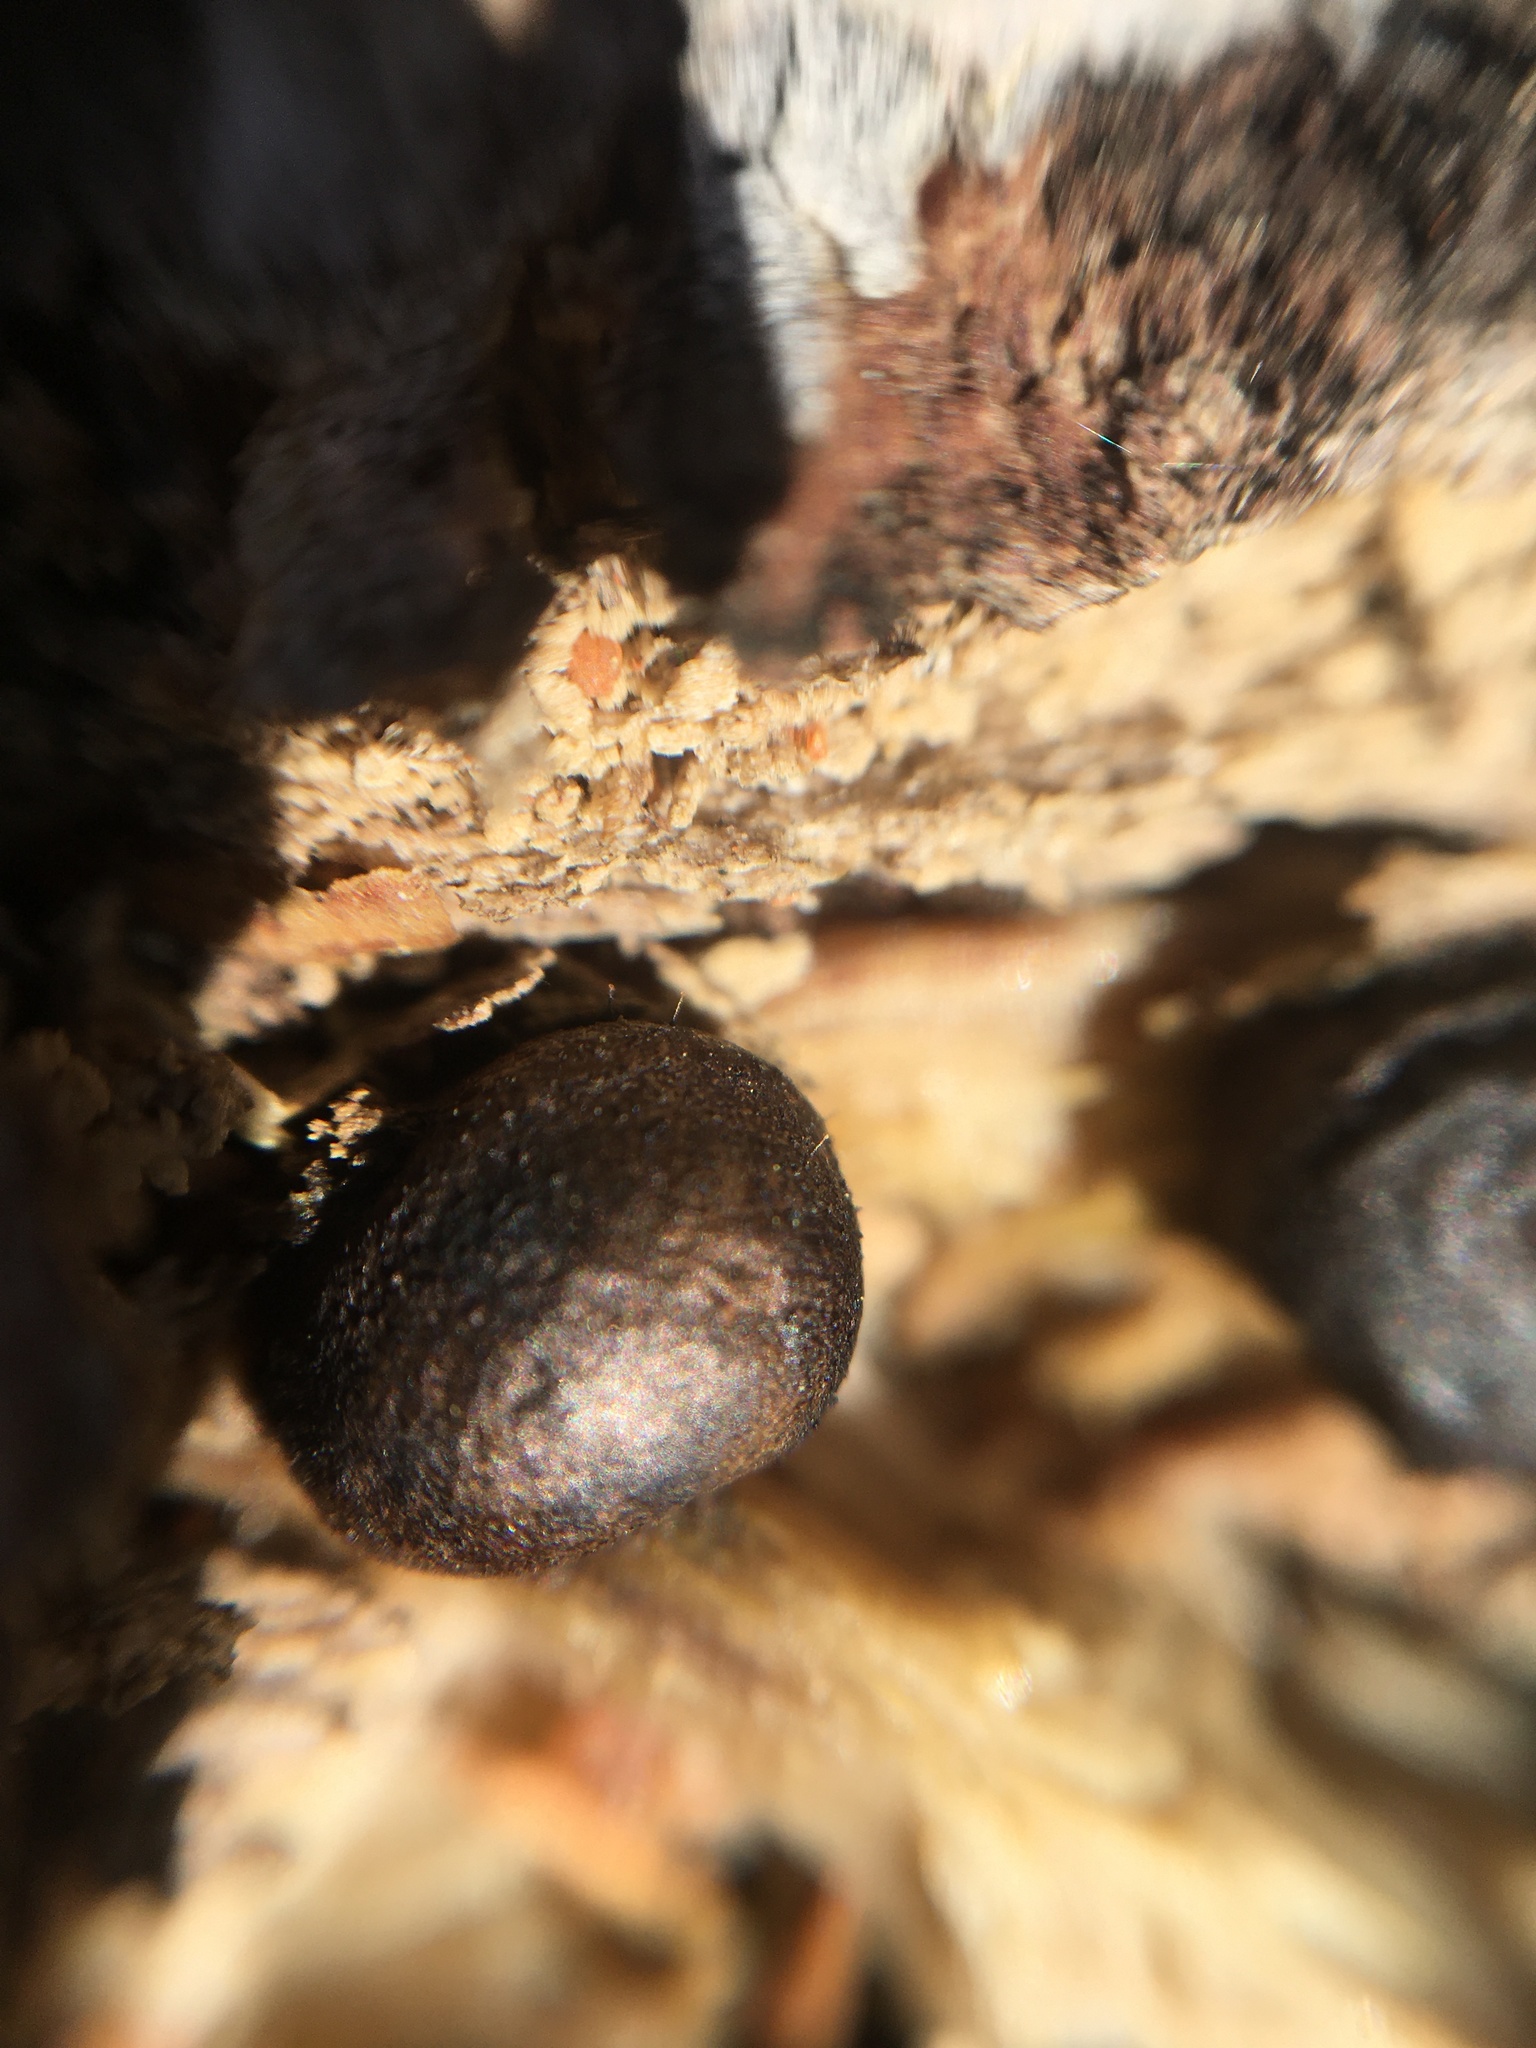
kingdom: Protozoa
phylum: Mycetozoa
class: Myxomycetes
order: Cribrariales
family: Tubiferaceae
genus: Lycogala
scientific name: Lycogala epidendrum
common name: Wolf's milk
